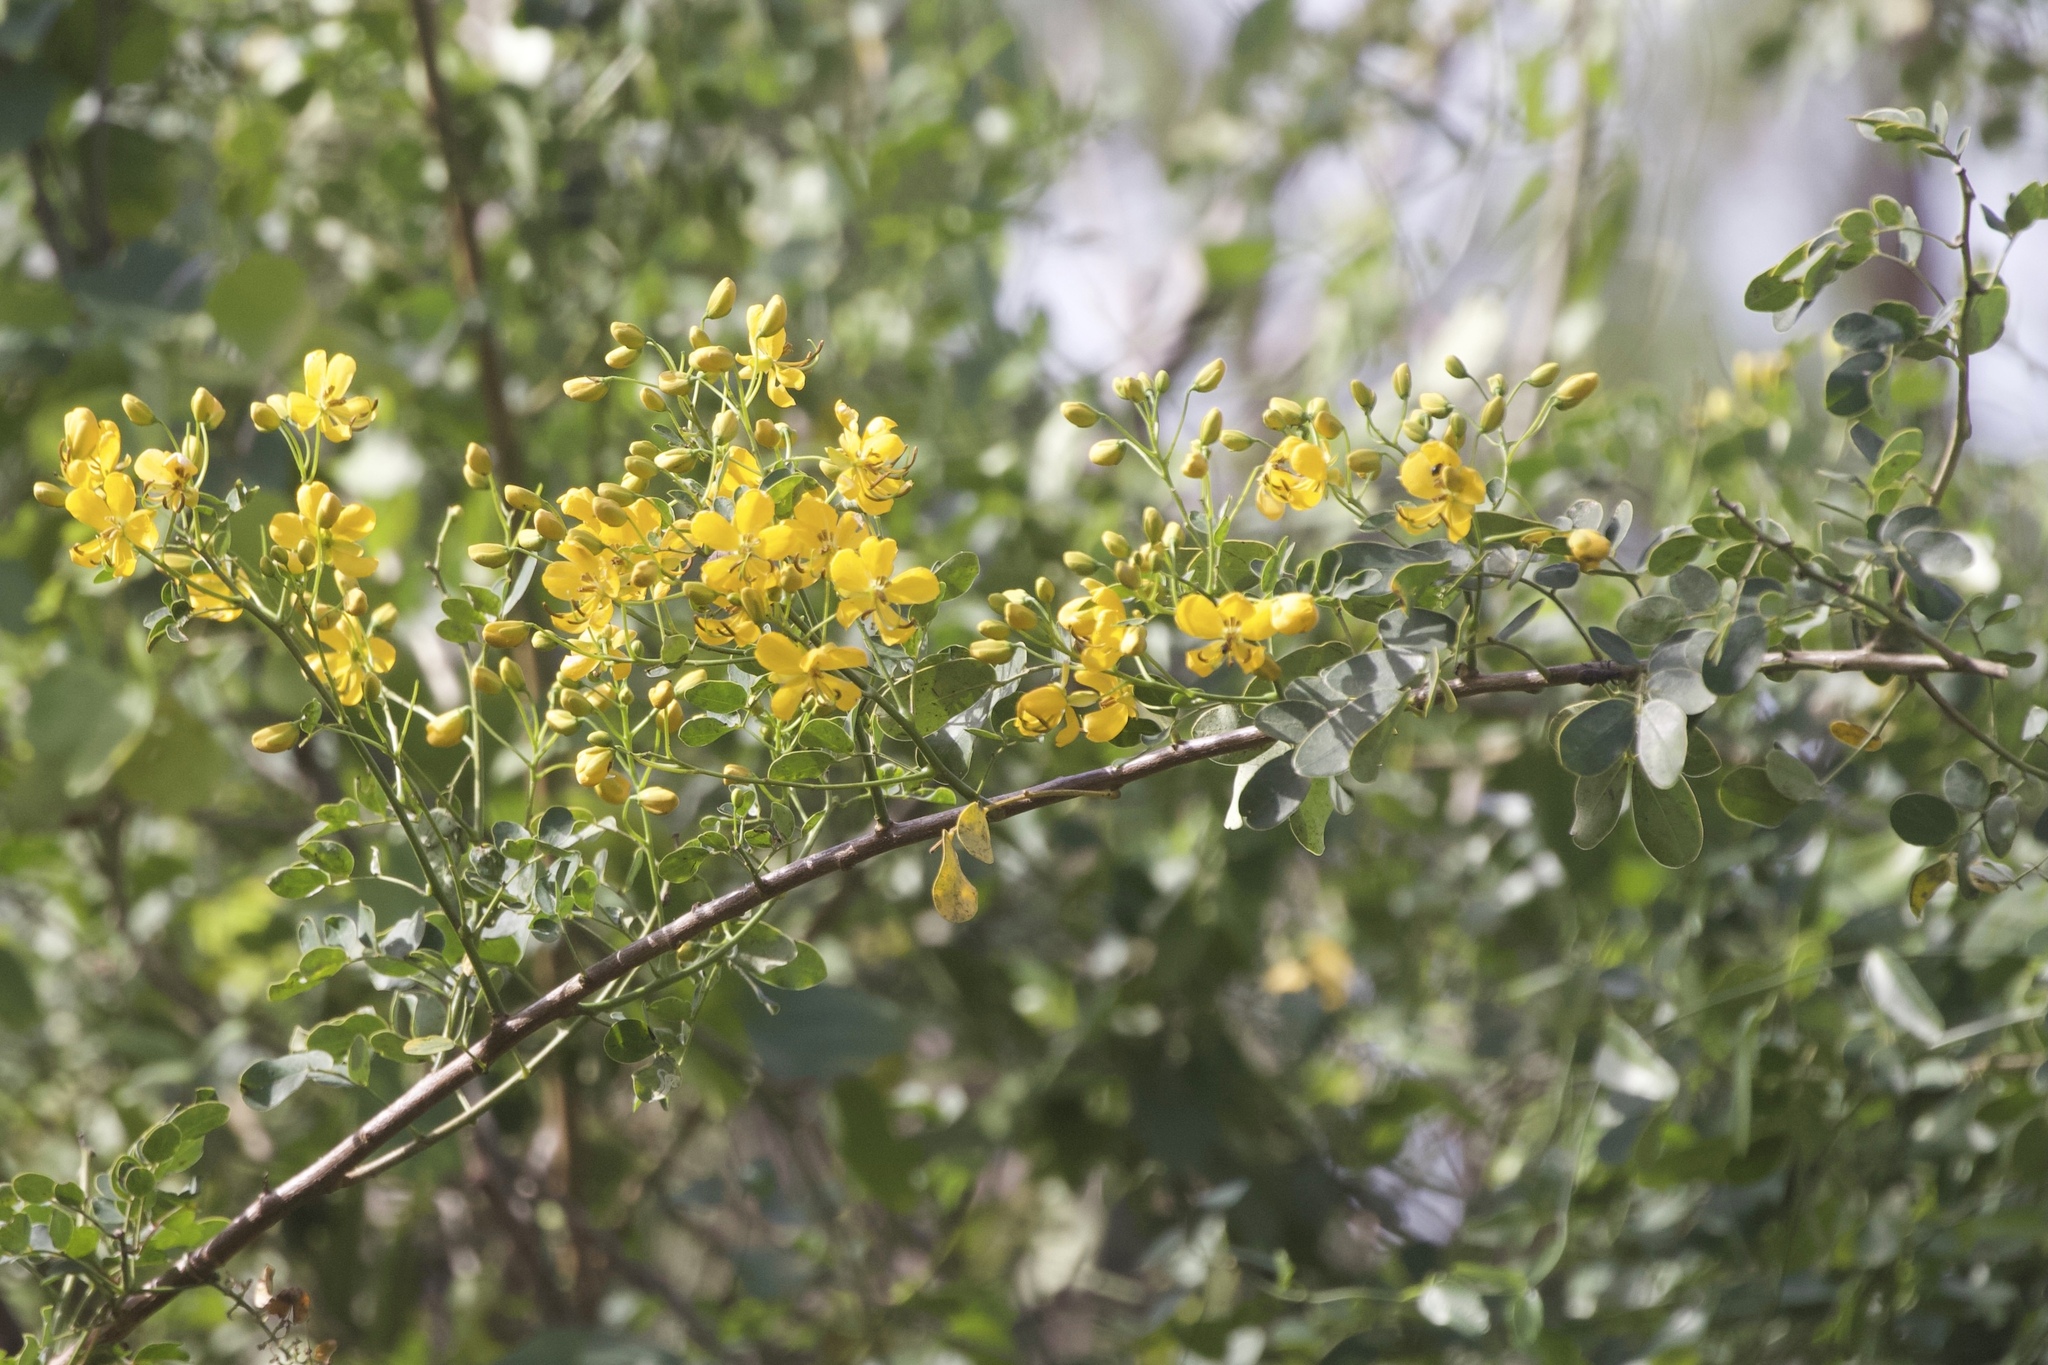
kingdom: Plantae
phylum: Tracheophyta
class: Magnoliopsida
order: Fabales
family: Fabaceae
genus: Senna
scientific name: Senna pendula
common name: Easter cassia
